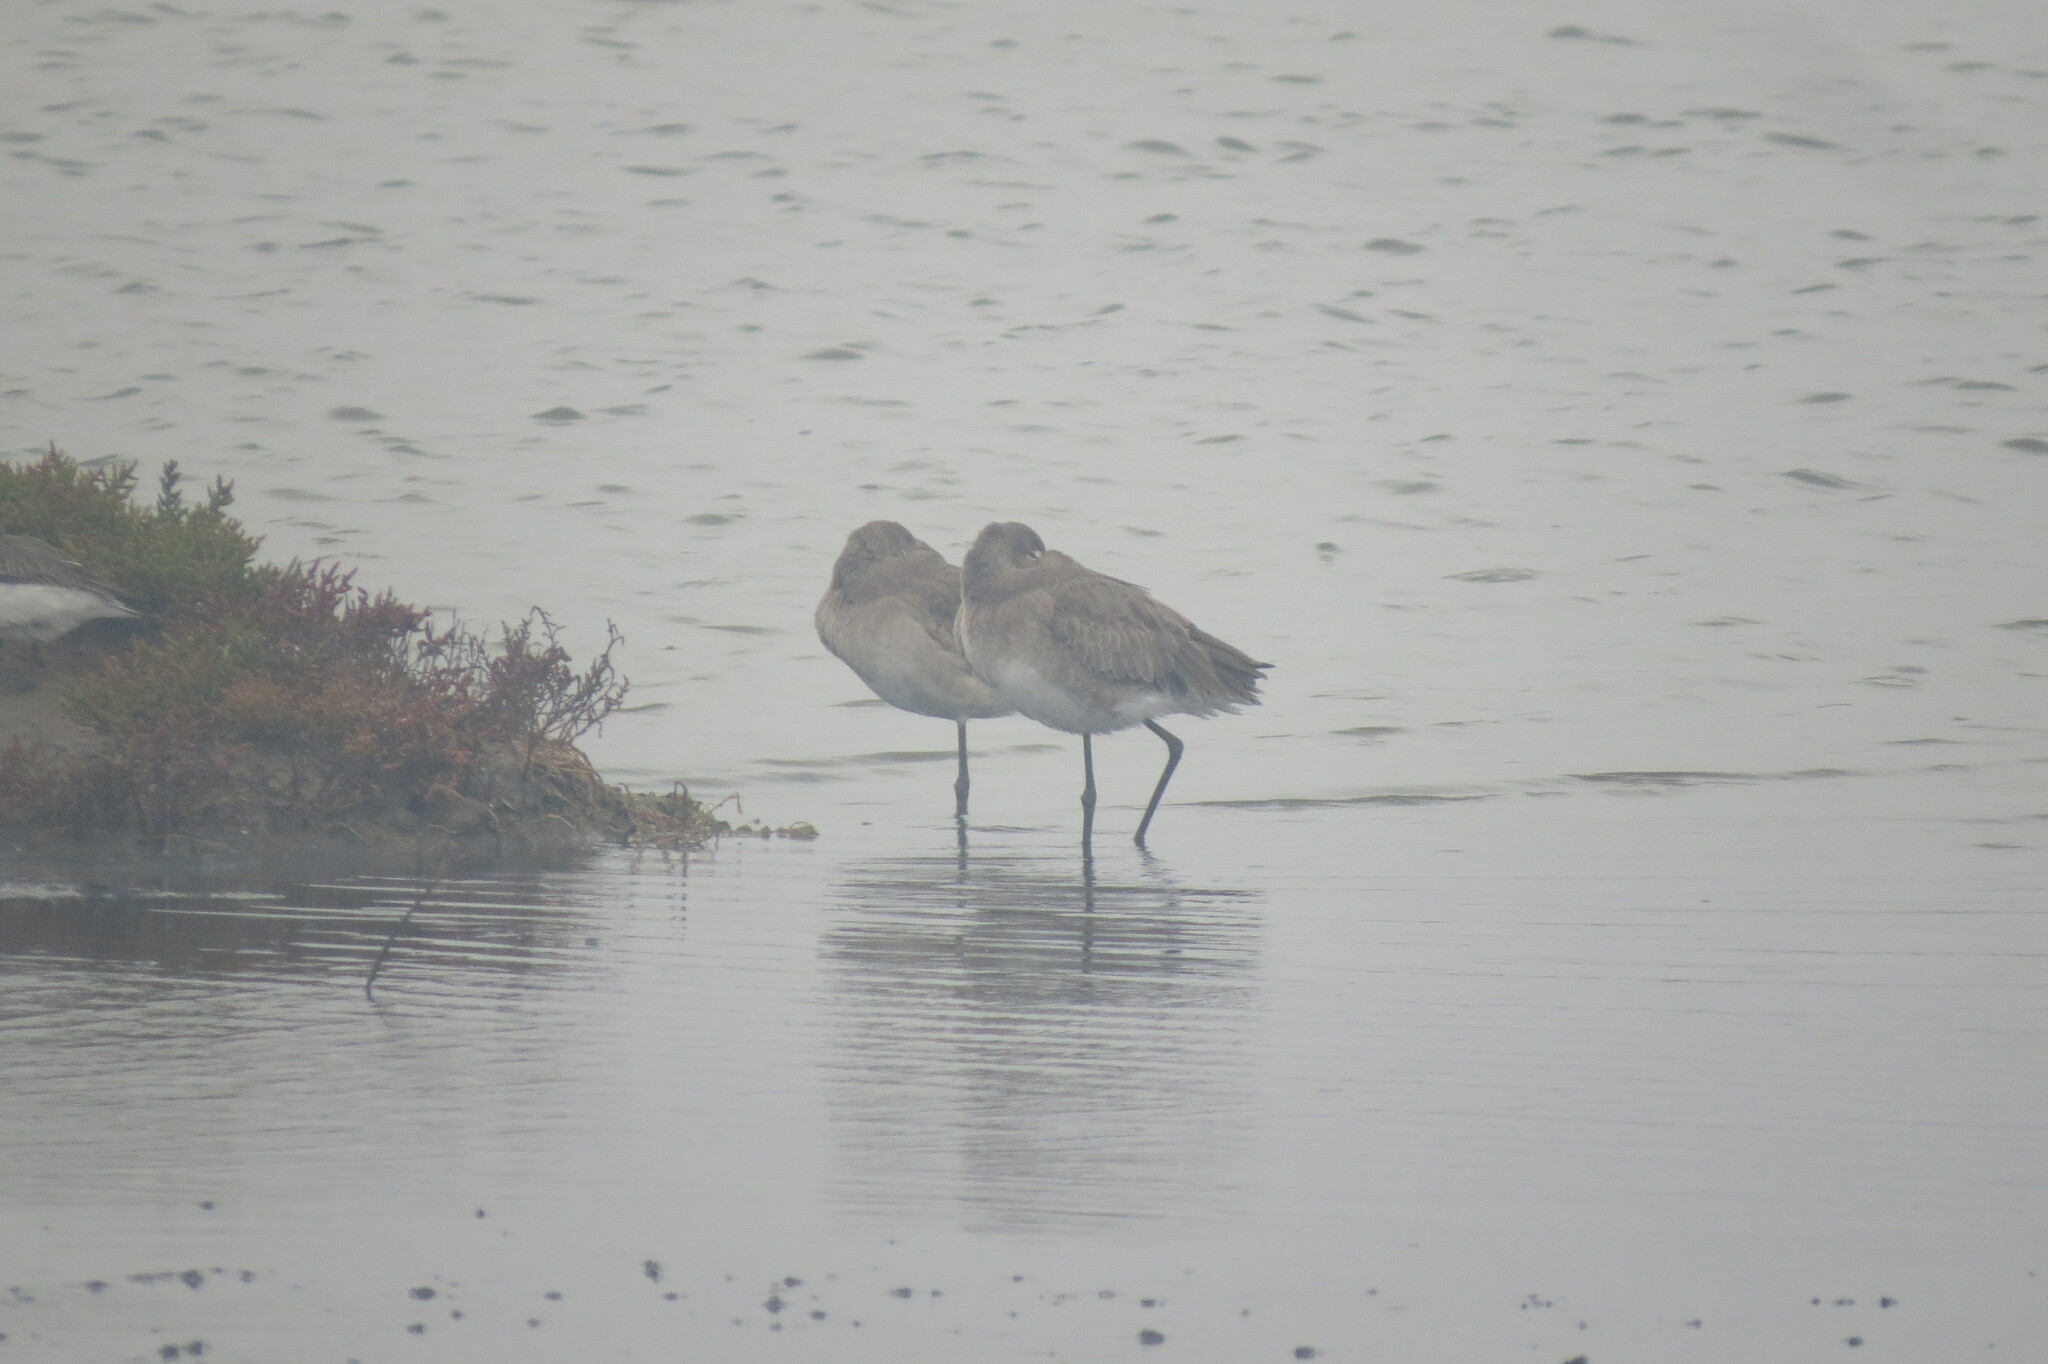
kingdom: Animalia
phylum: Chordata
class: Aves
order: Charadriiformes
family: Scolopacidae
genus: Limosa
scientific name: Limosa limosa
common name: Black-tailed godwit
